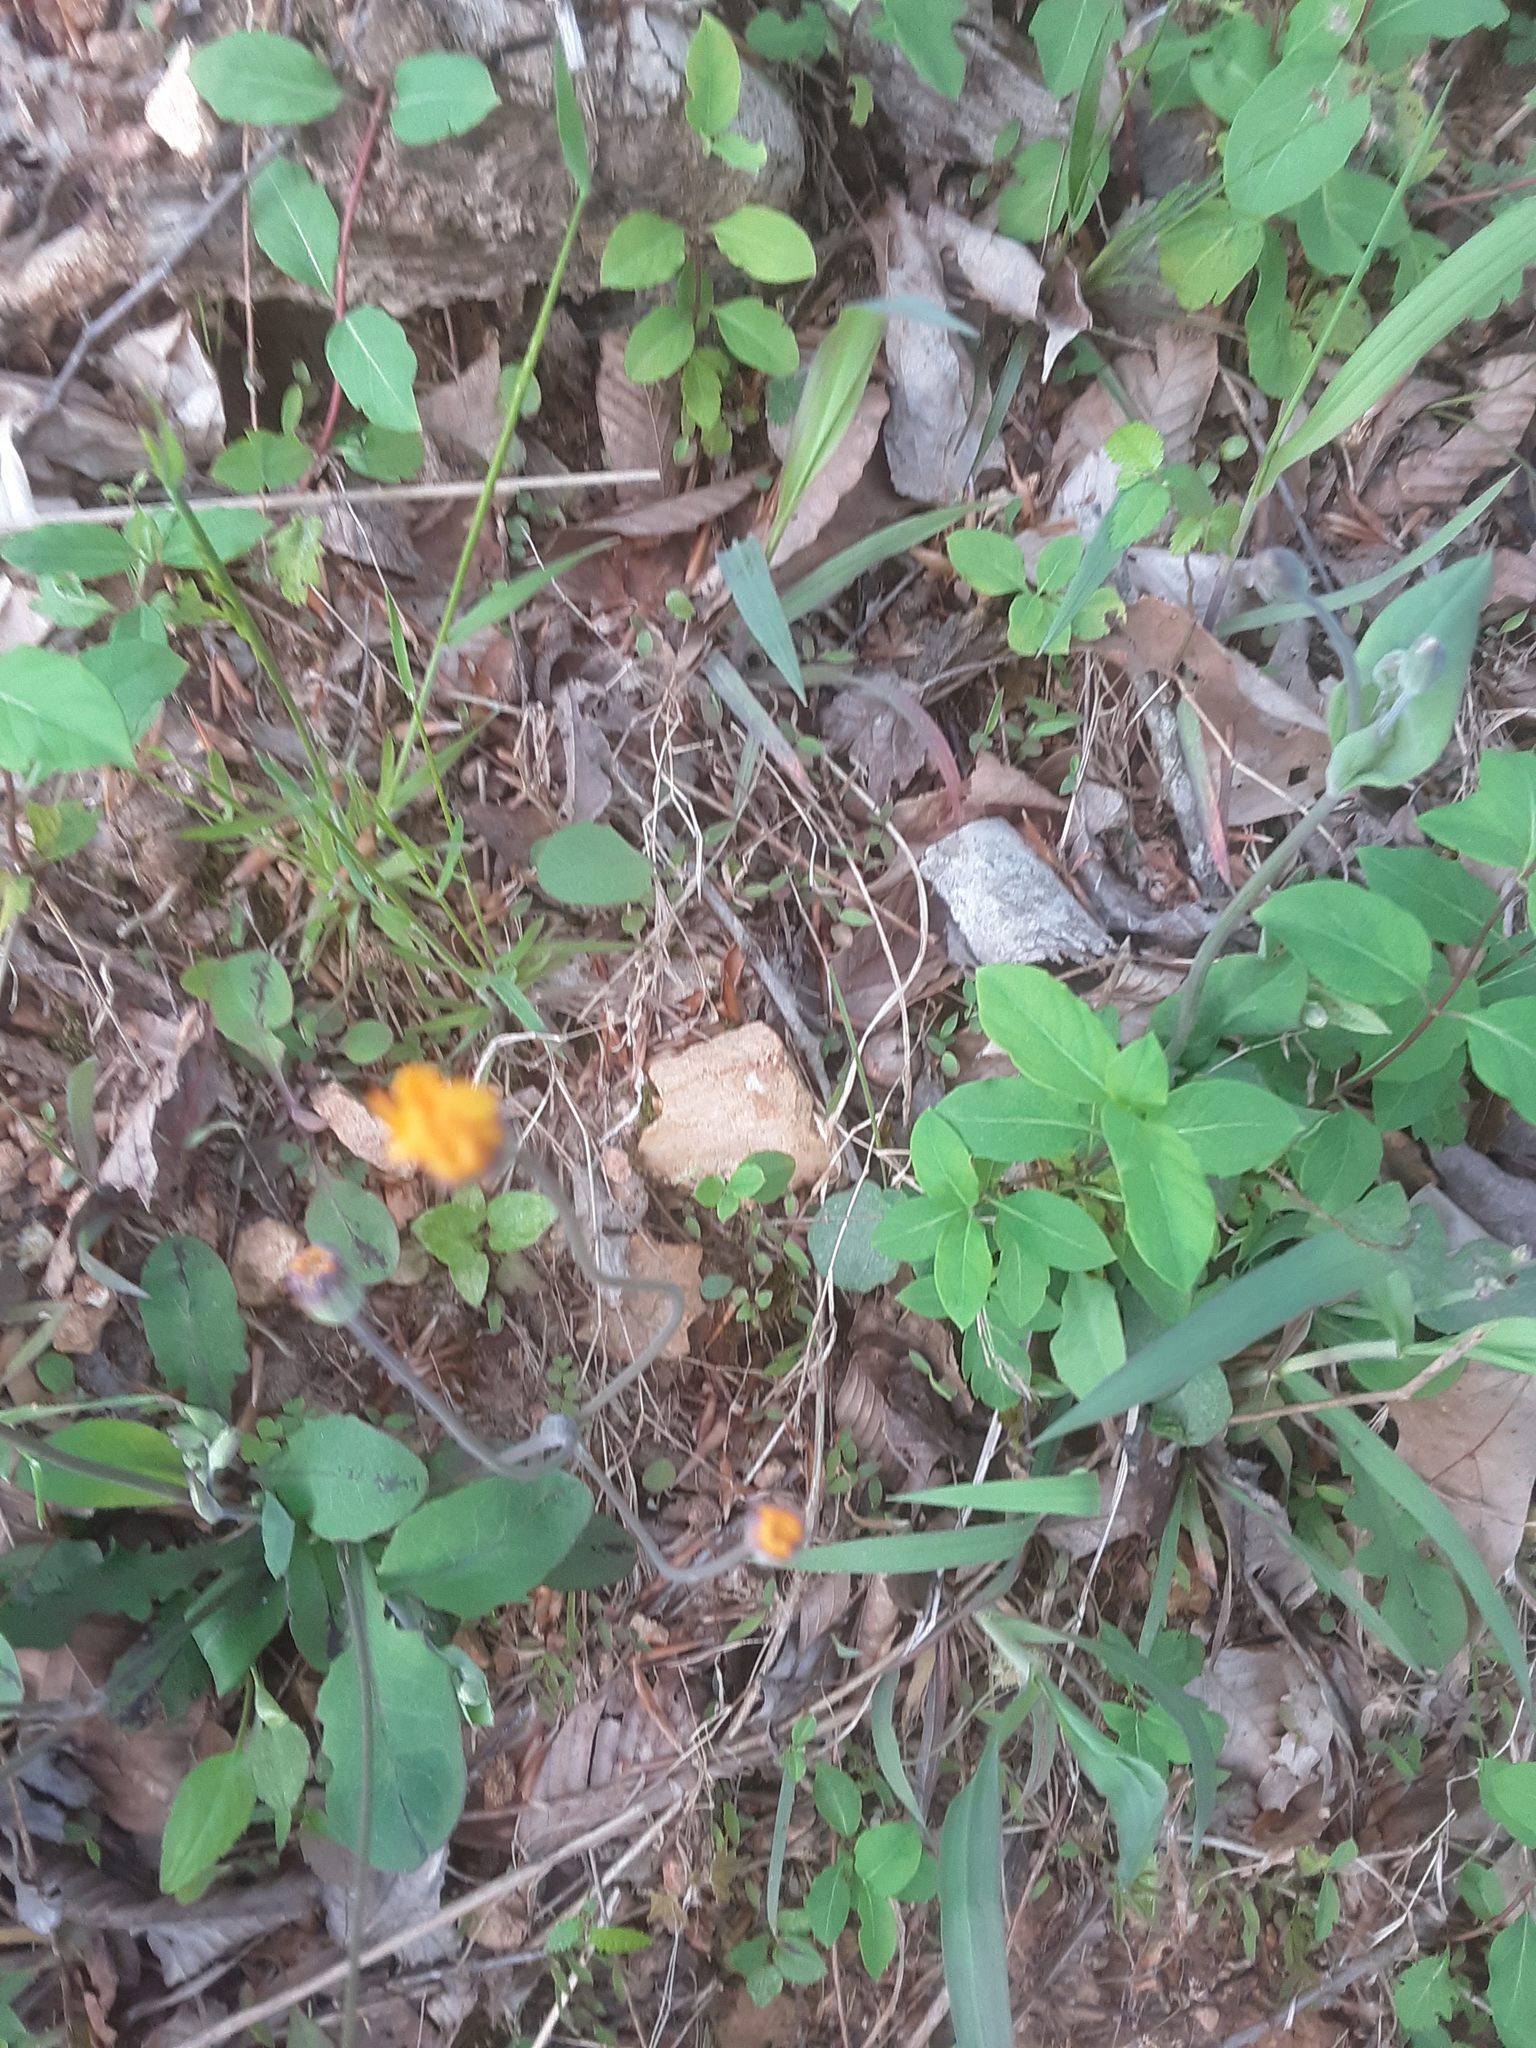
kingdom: Plantae
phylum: Tracheophyta
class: Magnoliopsida
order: Asterales
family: Asteraceae
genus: Krigia
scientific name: Krigia biflora
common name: Orange dwarf-dandelion
